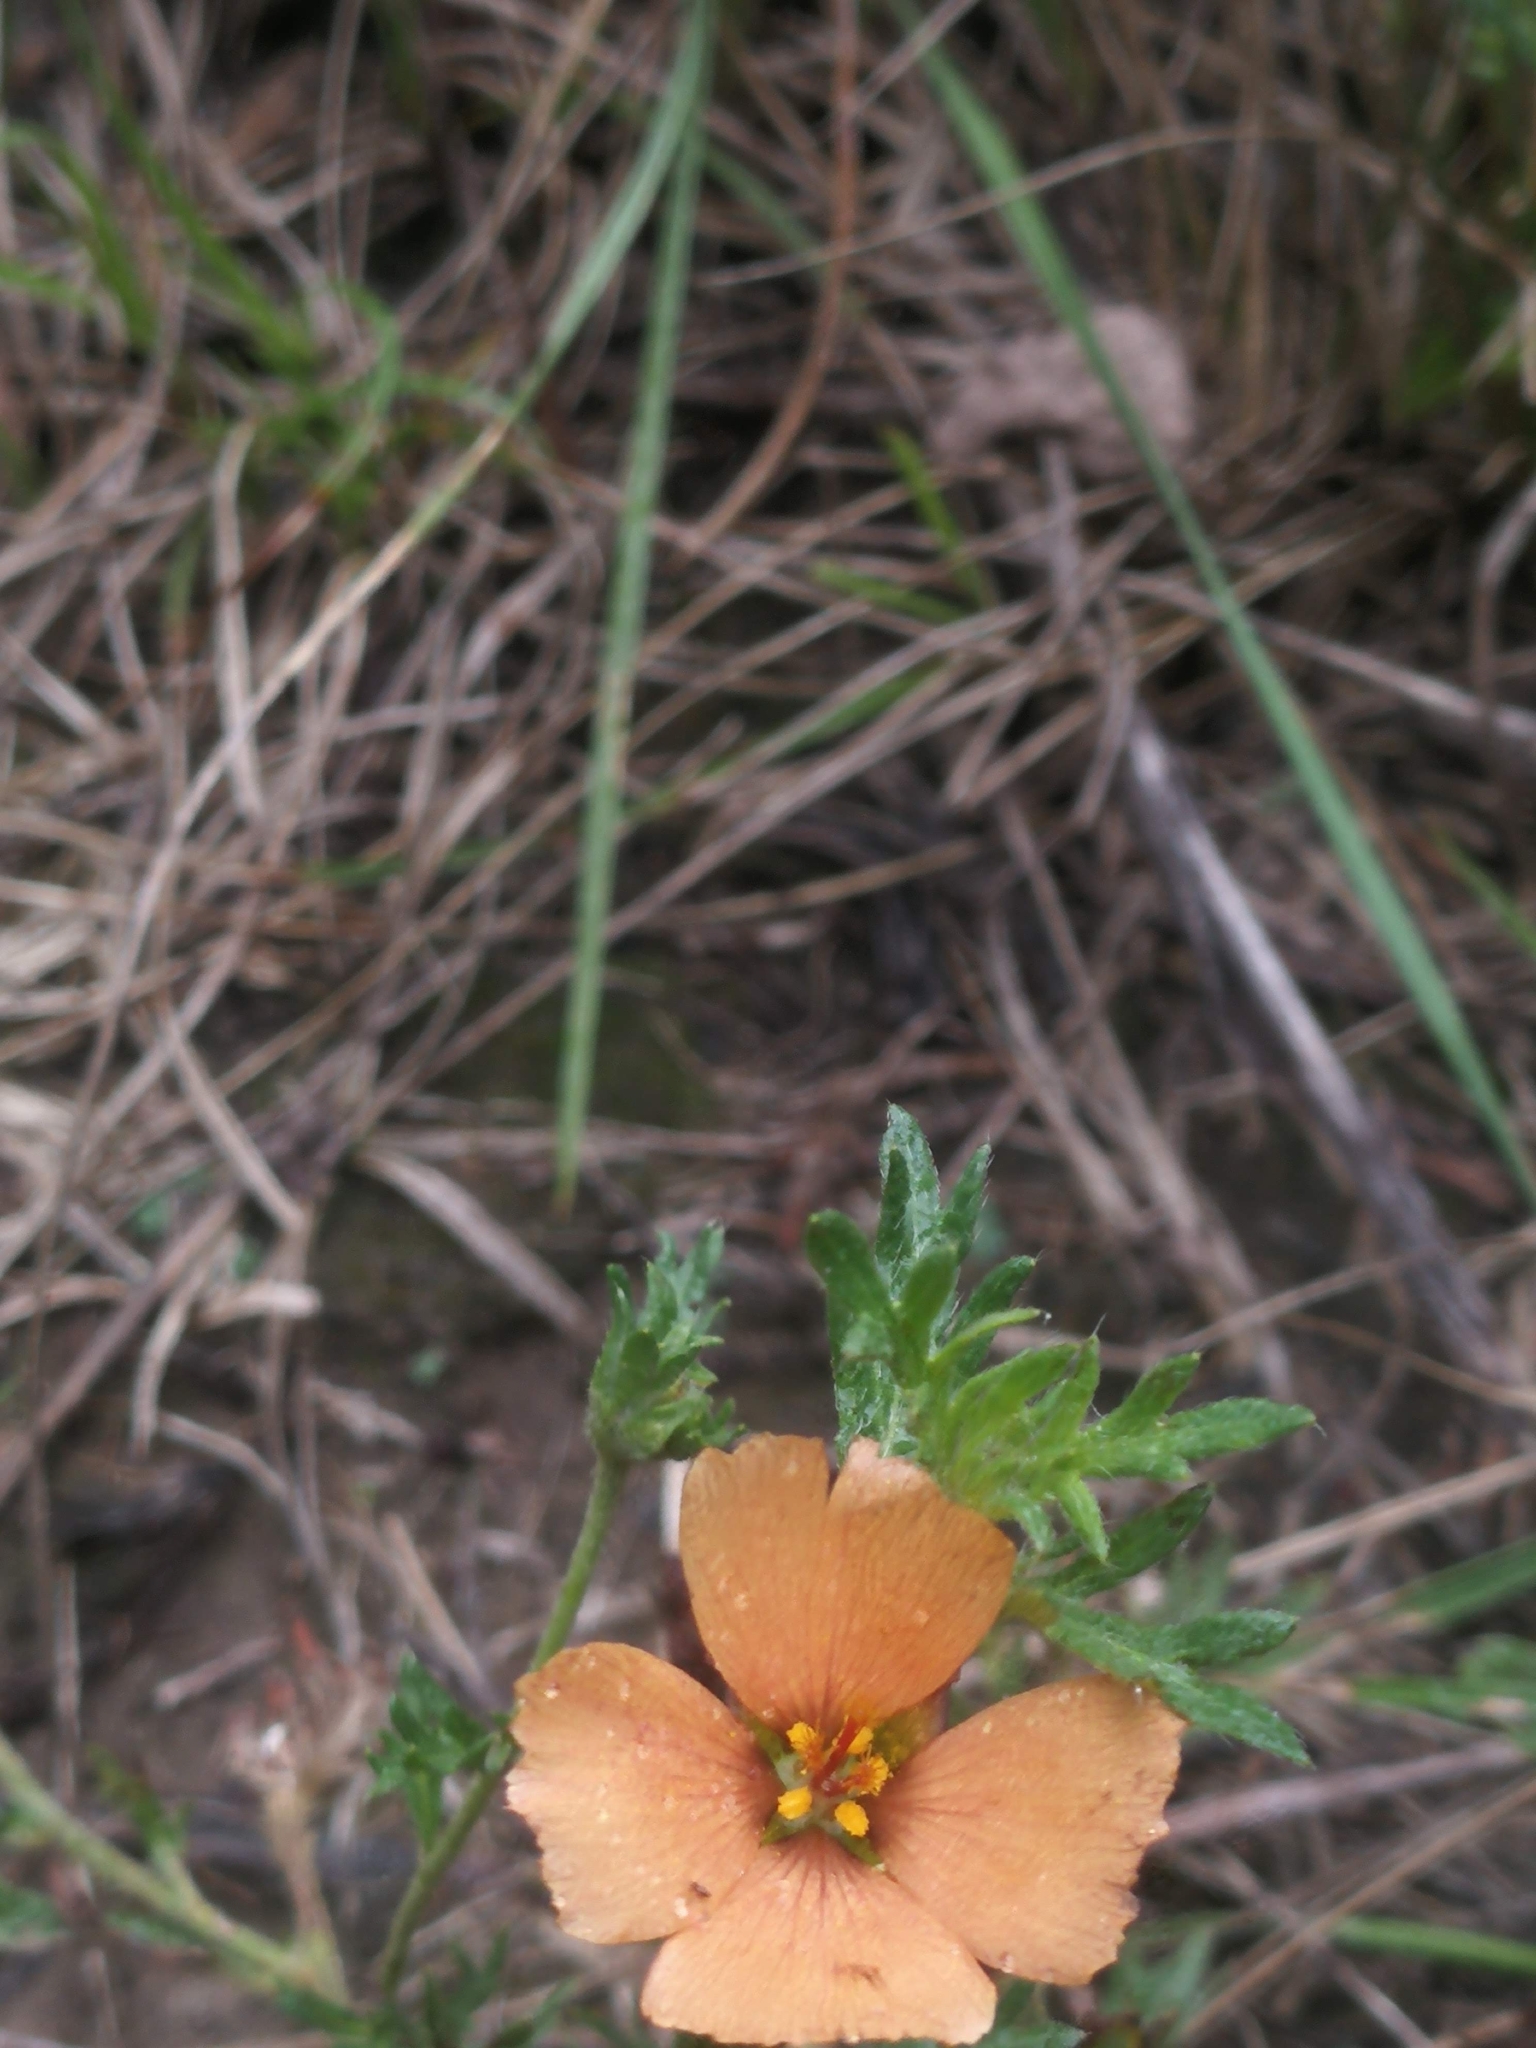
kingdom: Plantae
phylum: Tracheophyta
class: Magnoliopsida
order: Malpighiales
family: Turneraceae
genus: Turnera
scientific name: Turnera sidoides
